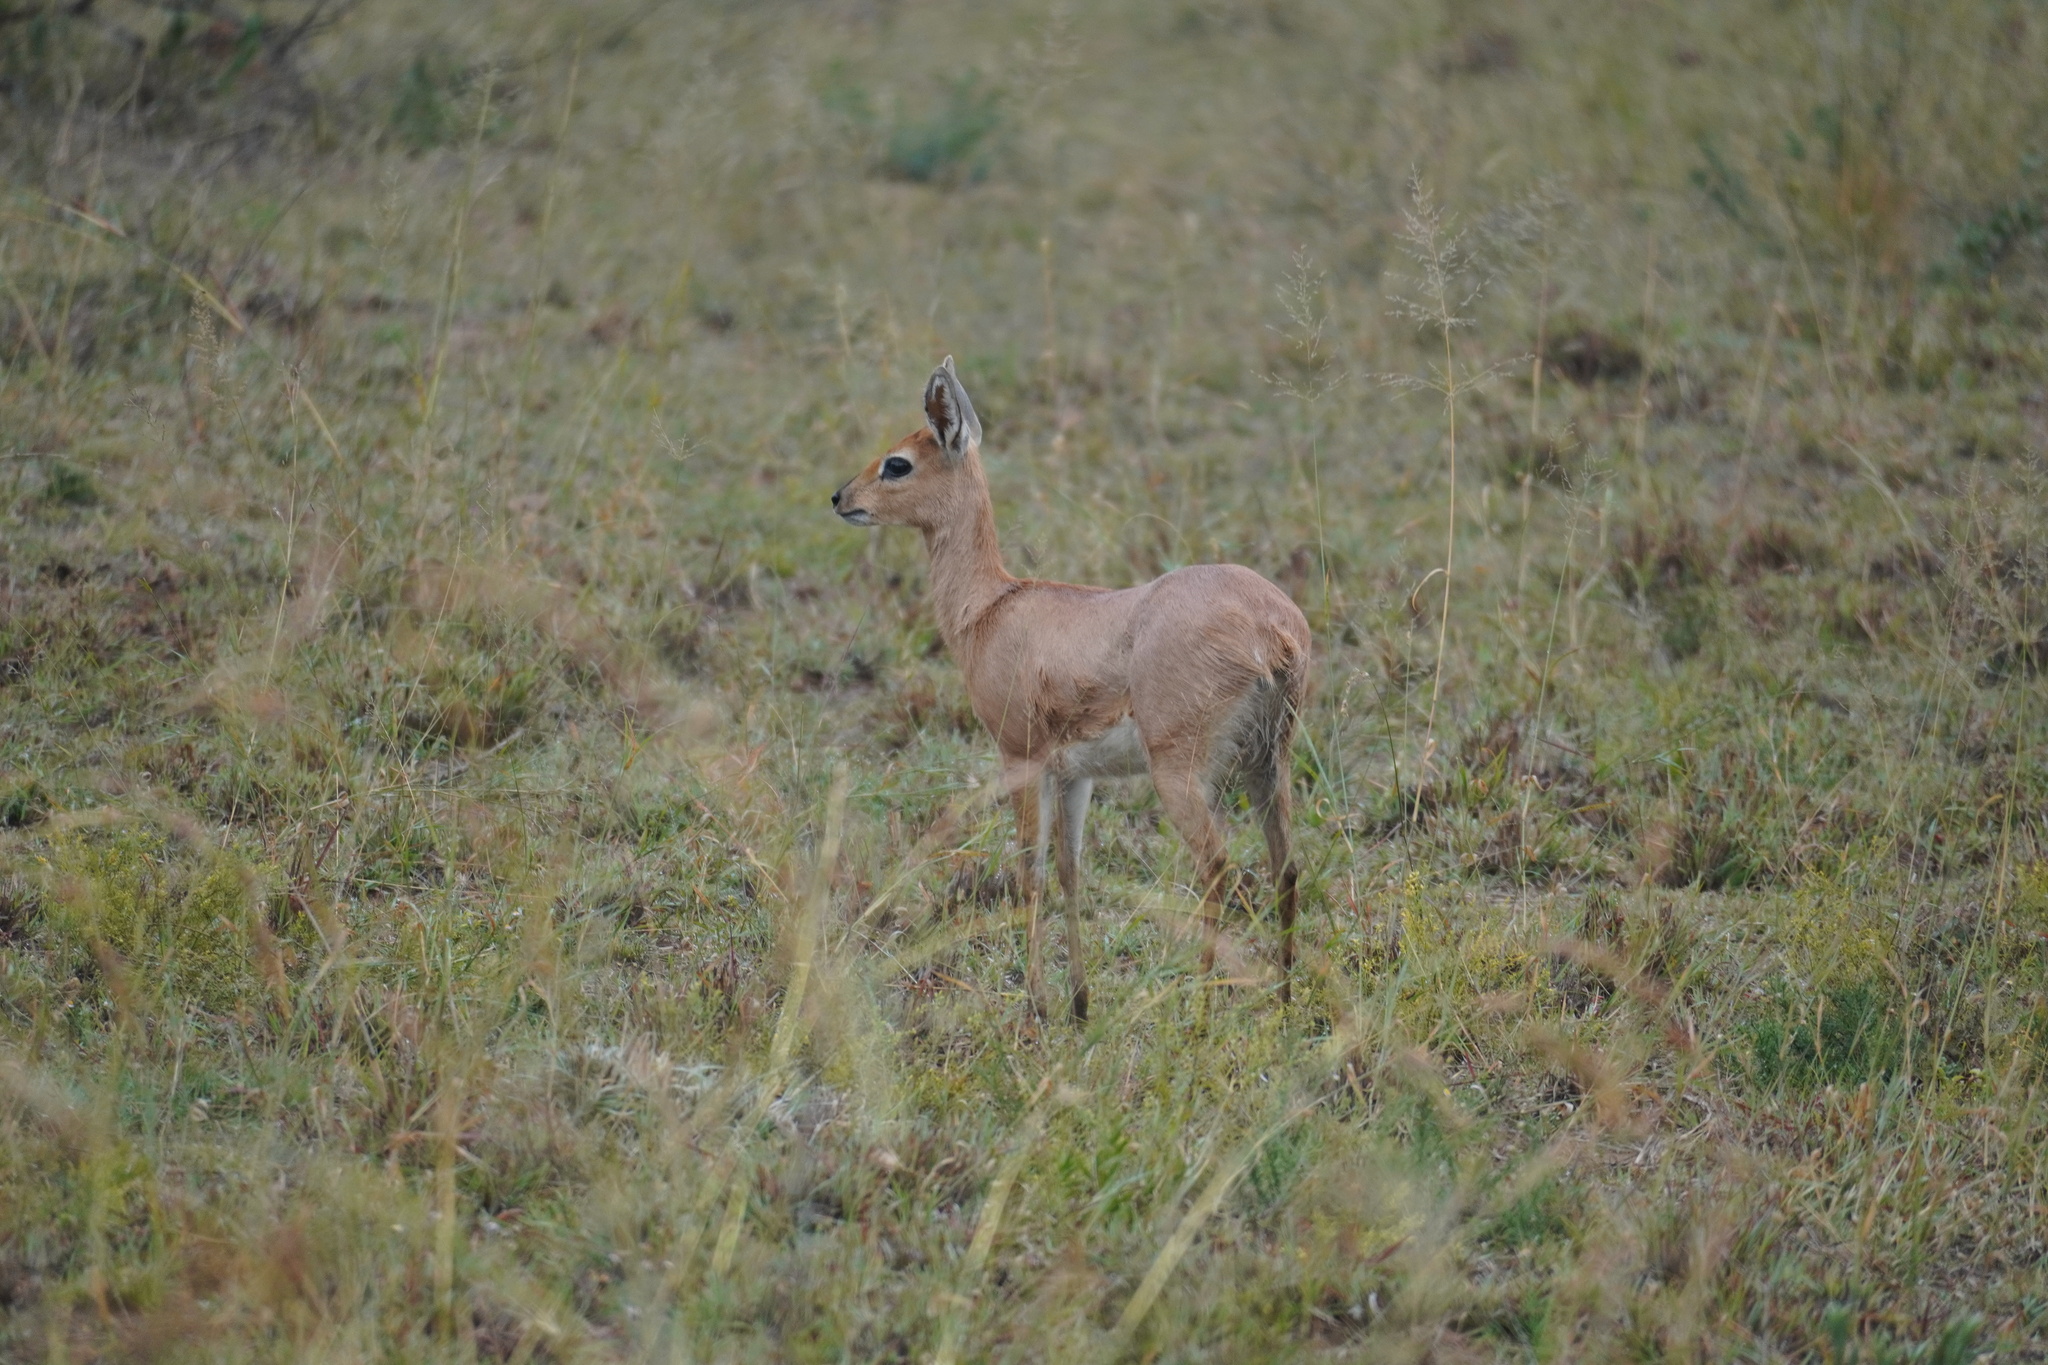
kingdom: Animalia
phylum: Chordata
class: Mammalia
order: Artiodactyla
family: Bovidae
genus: Raphicerus
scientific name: Raphicerus campestris
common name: Steenbok
